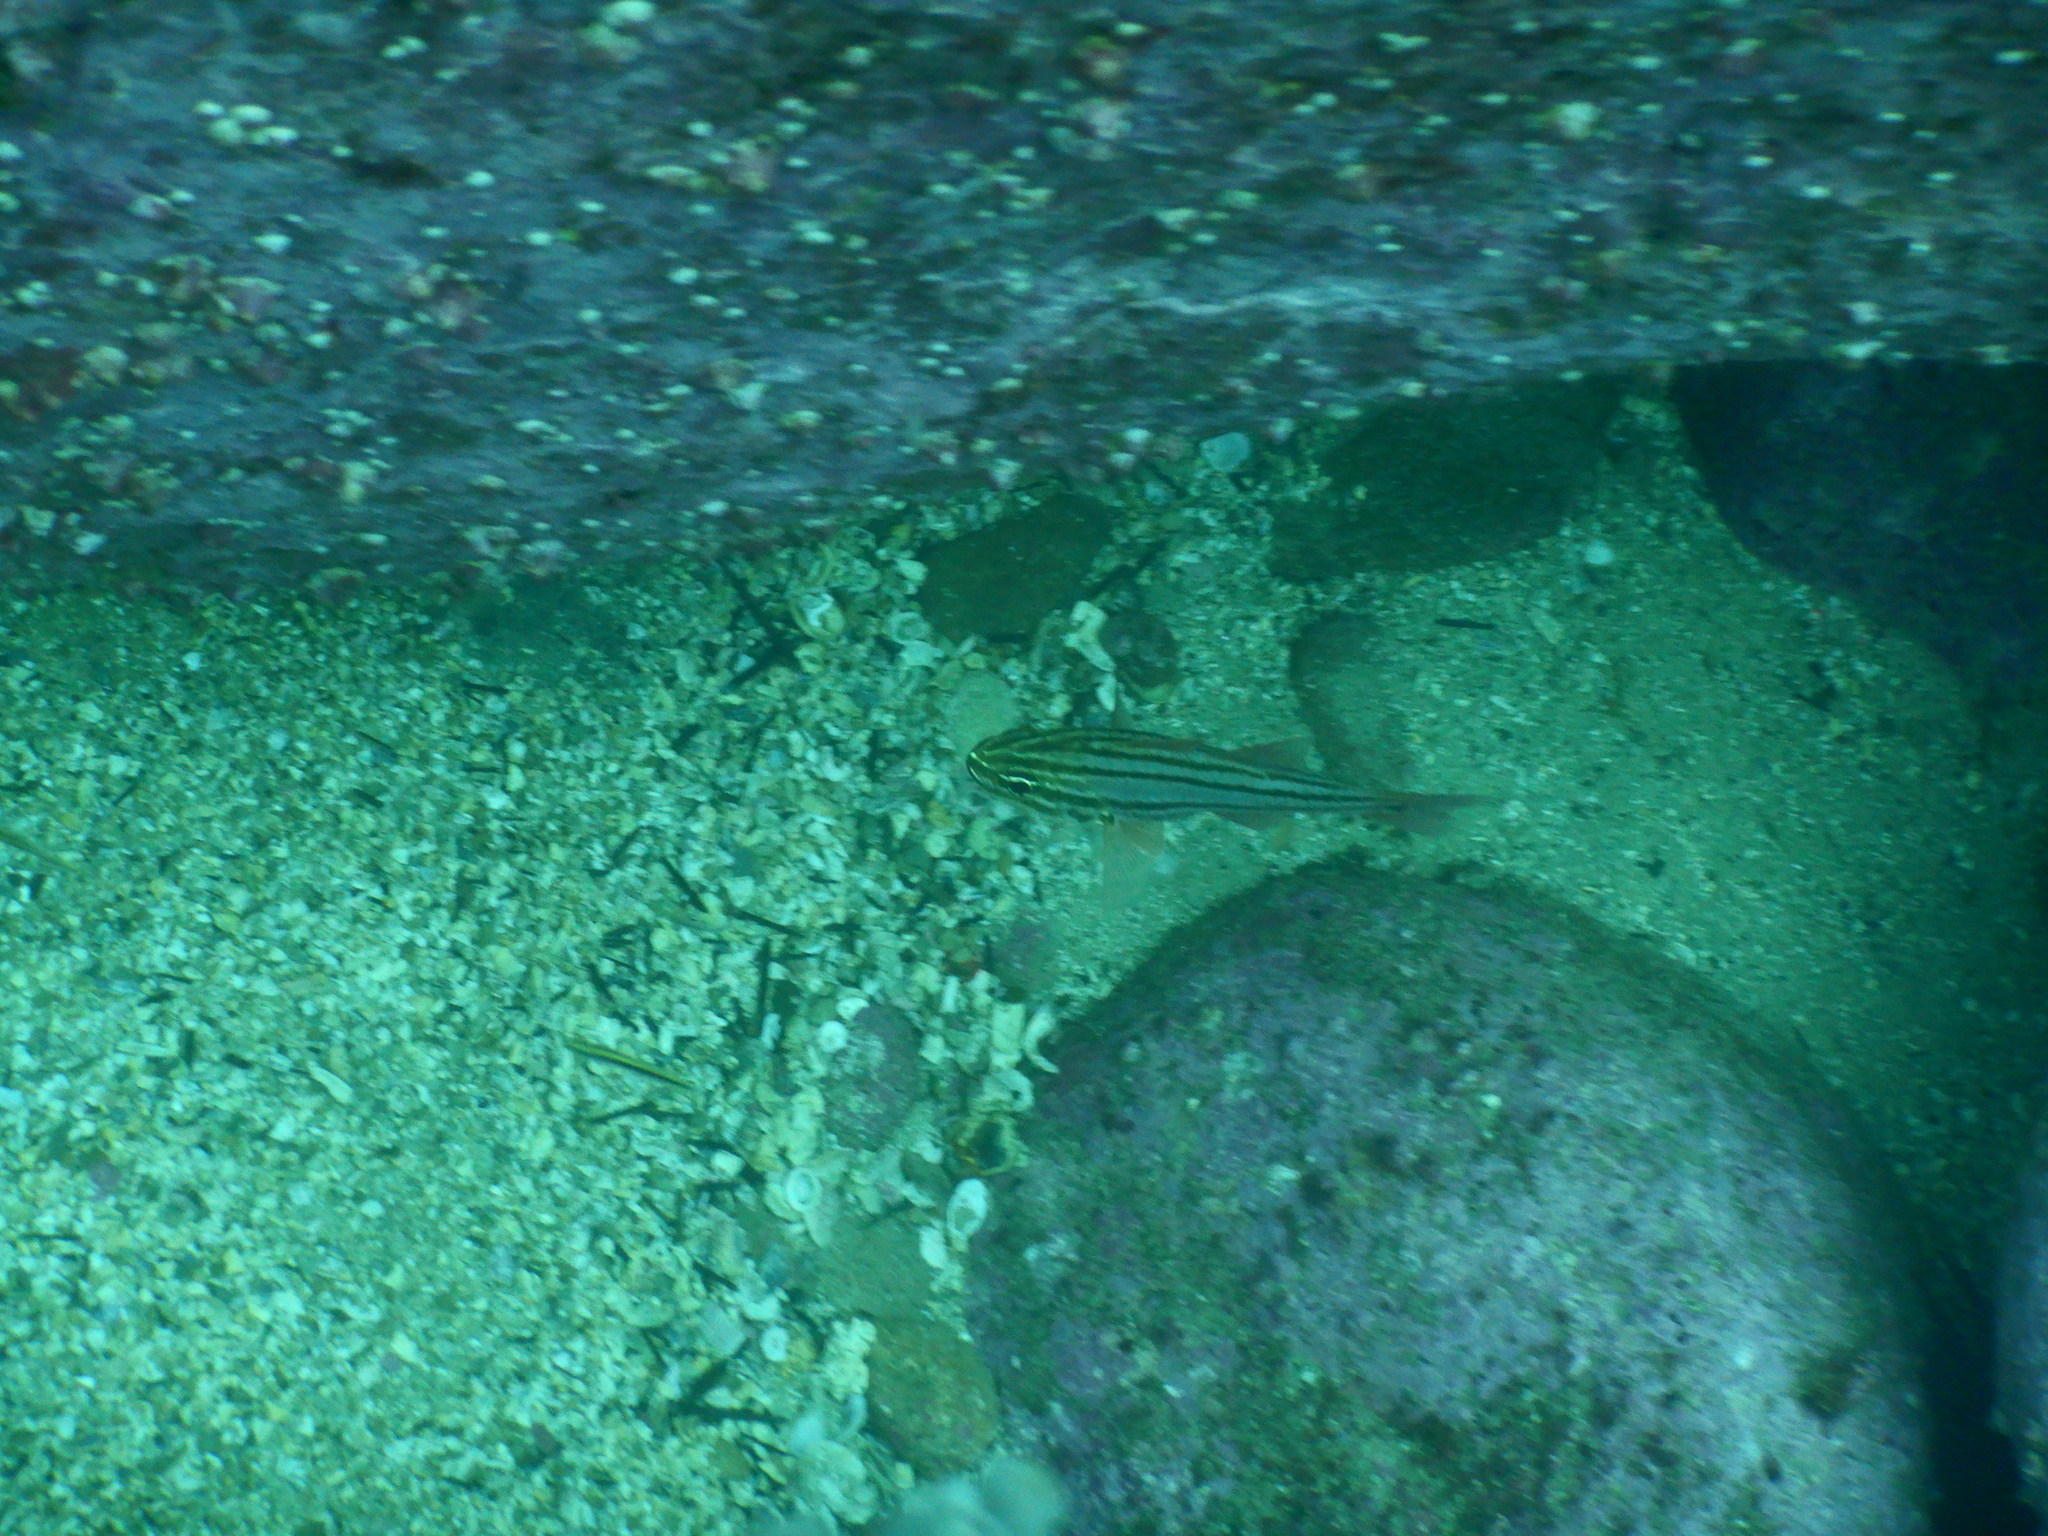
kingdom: Animalia
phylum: Chordata
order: Perciformes
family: Apogonidae
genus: Ostorhinchus
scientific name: Ostorhinchus limenus
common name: Four-banded soldierfish
